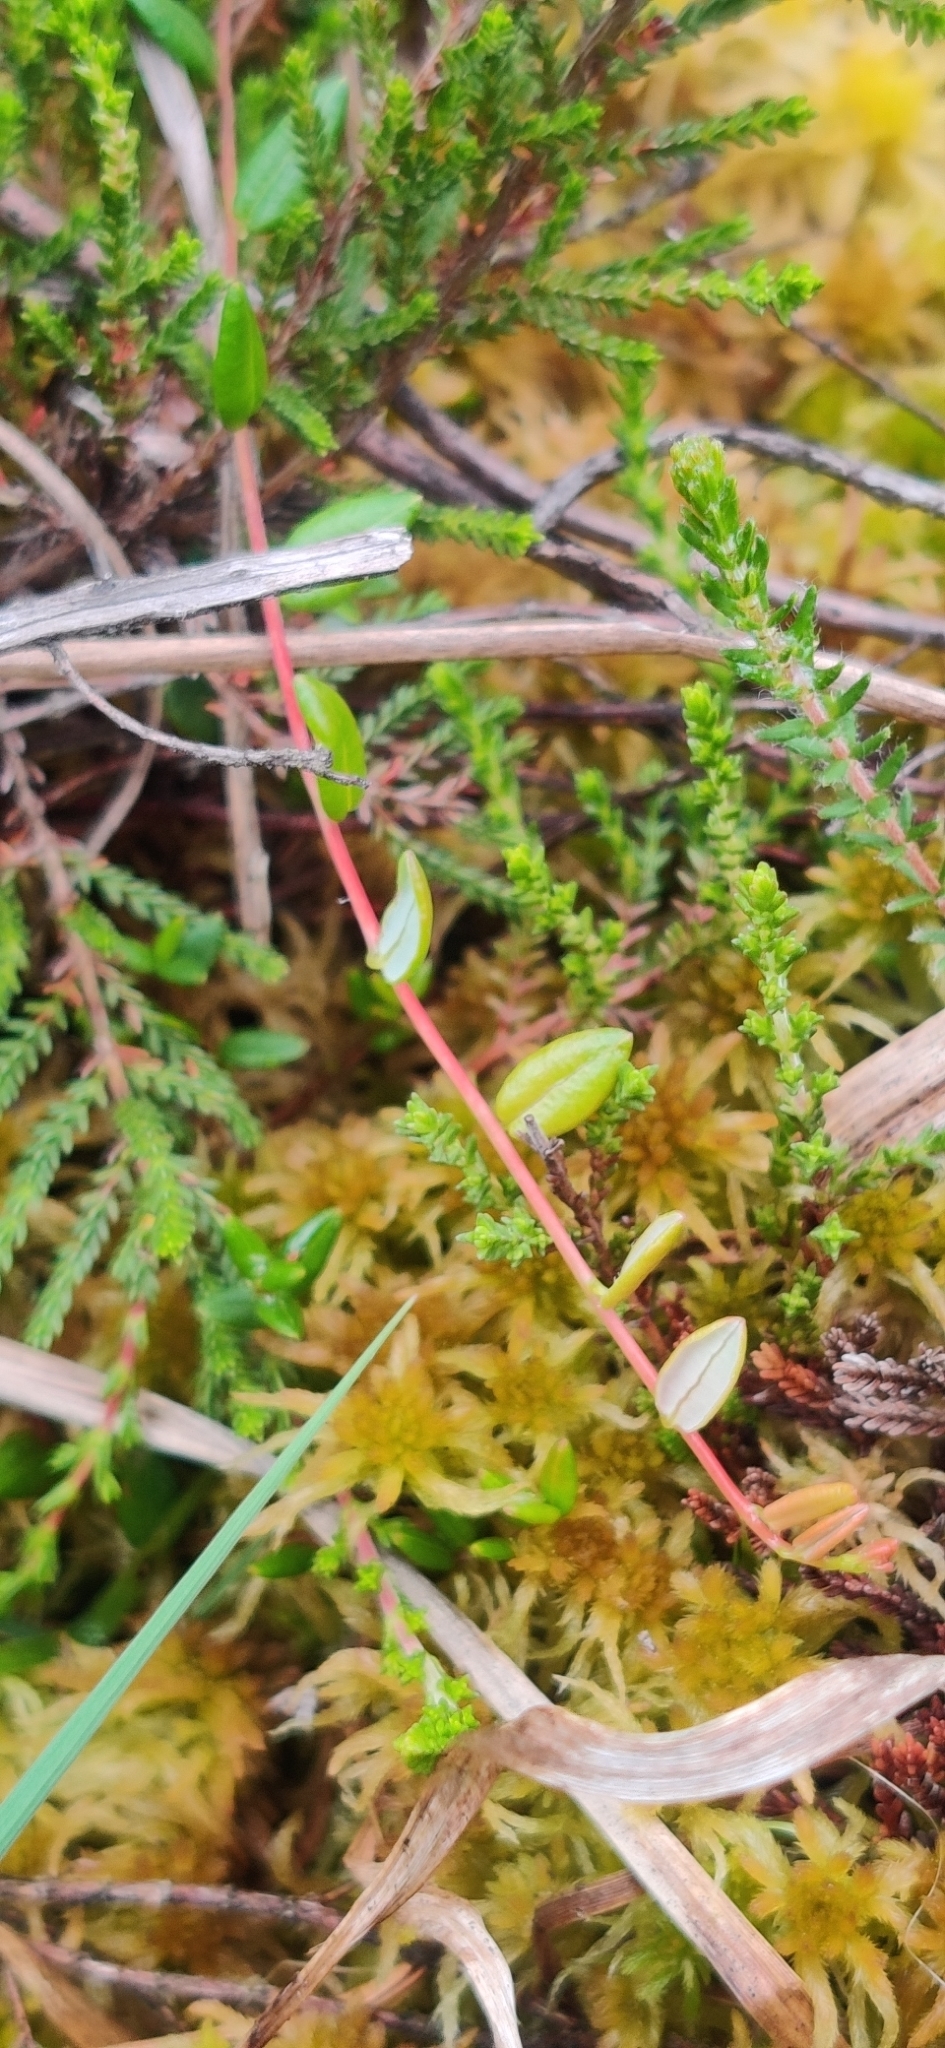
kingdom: Plantae
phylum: Tracheophyta
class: Magnoliopsida
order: Ericales
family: Ericaceae
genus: Vaccinium
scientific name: Vaccinium oxycoccos
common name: Cranberry
